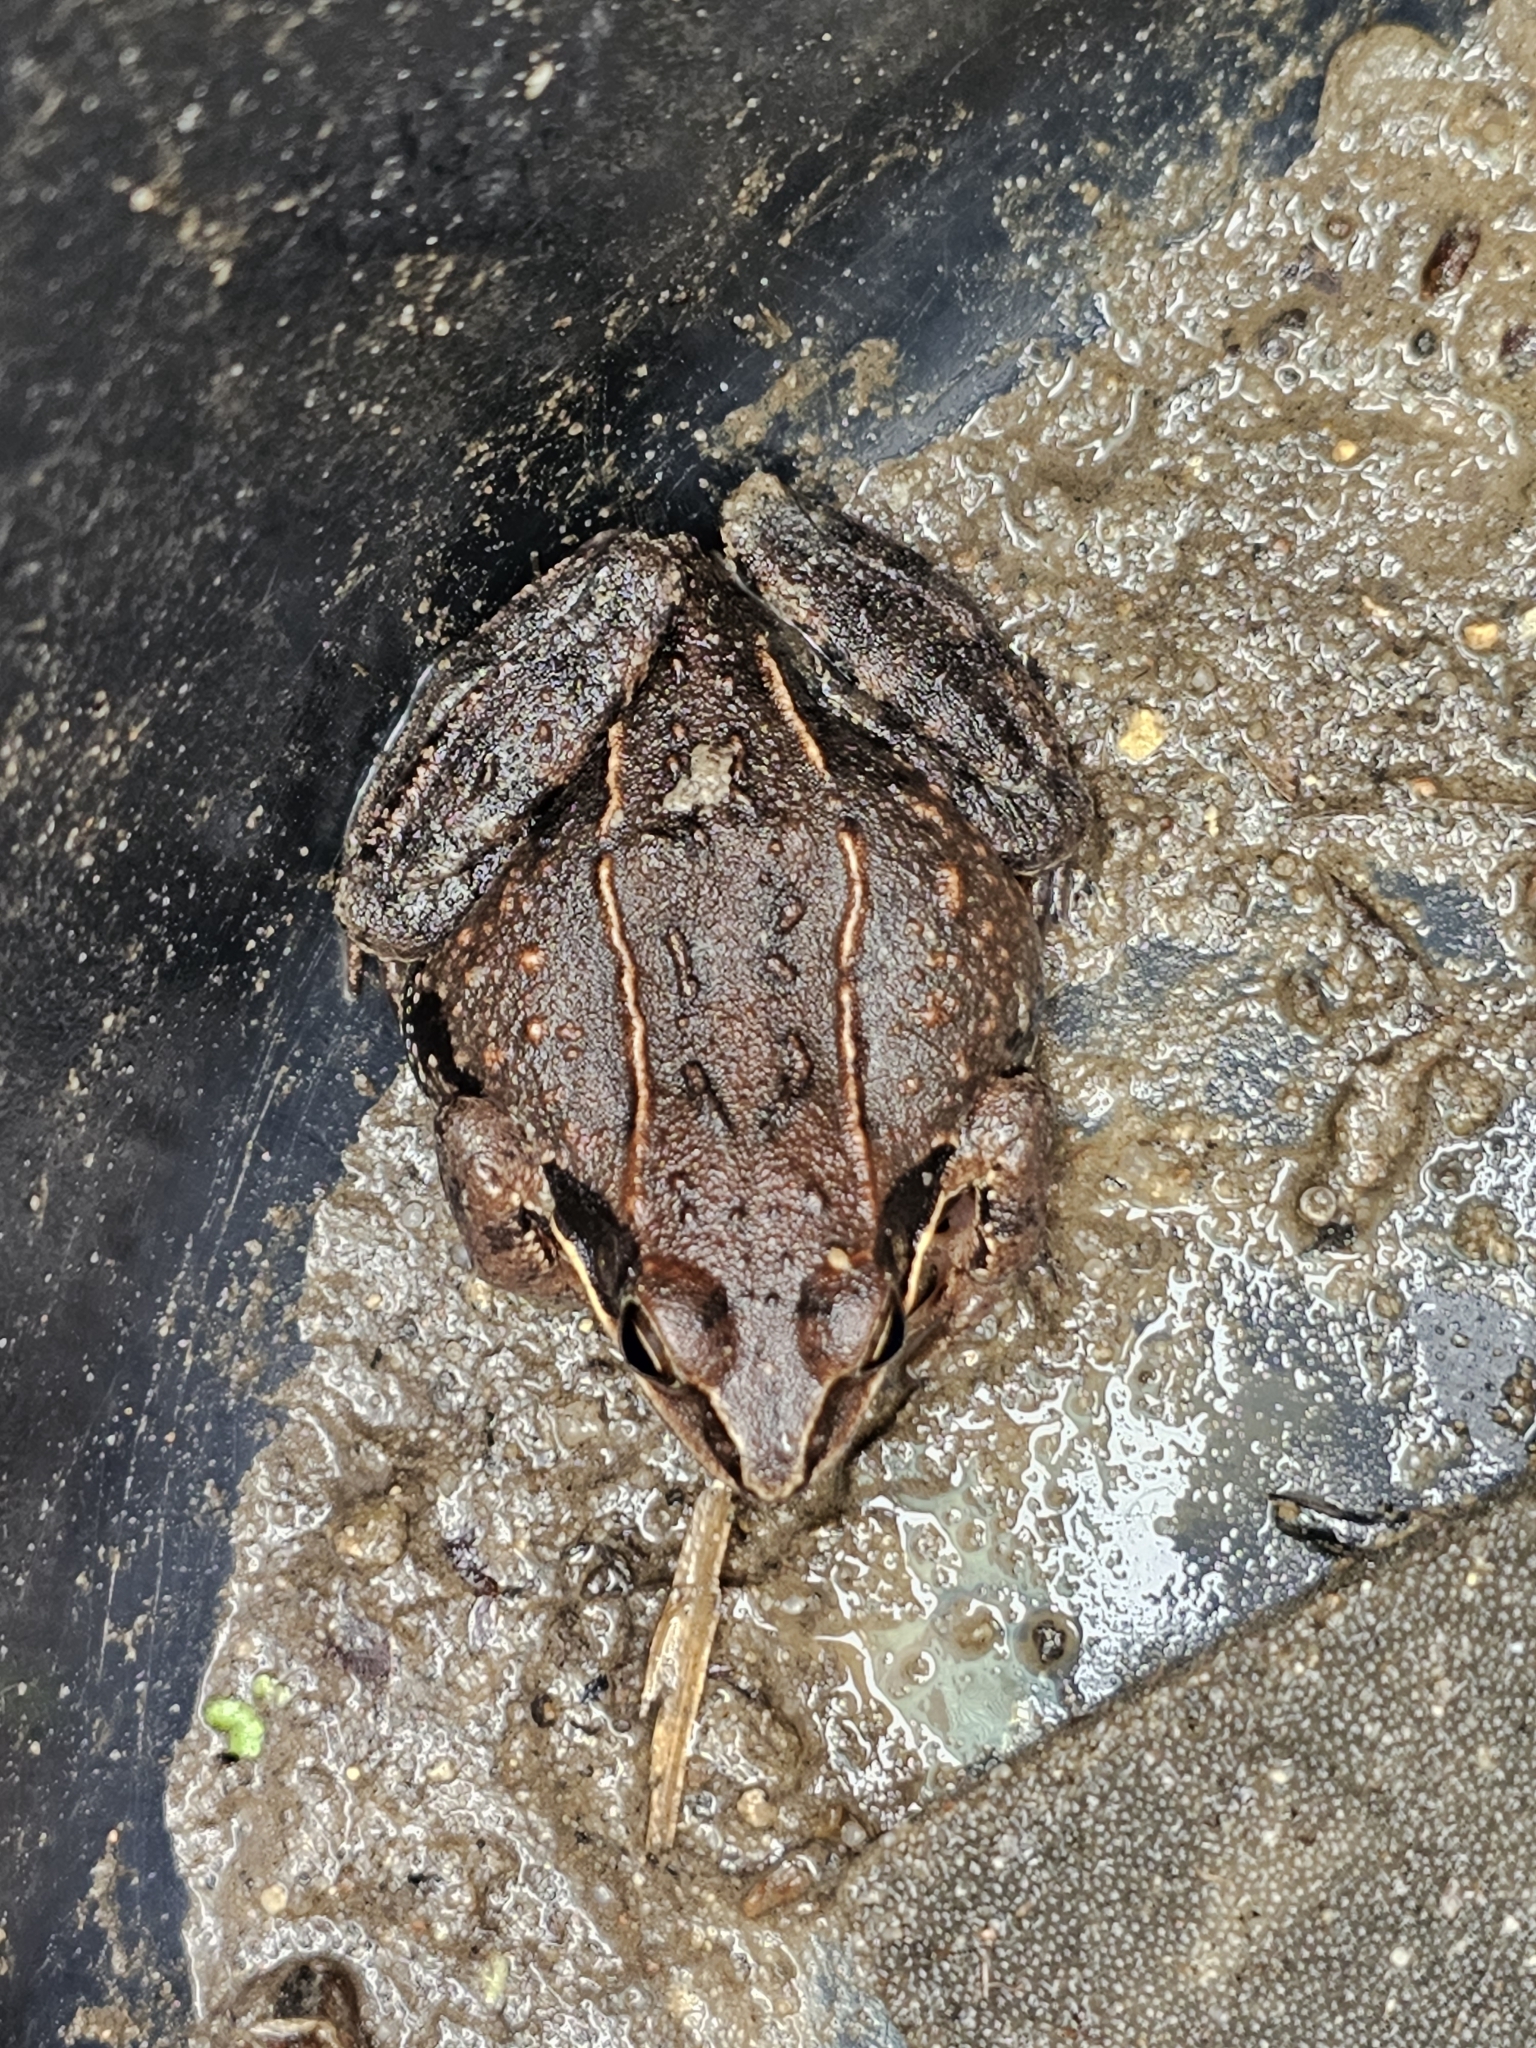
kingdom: Animalia
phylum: Chordata
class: Amphibia
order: Anura
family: Ranidae
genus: Rana
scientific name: Rana arvalis
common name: Moor frog
